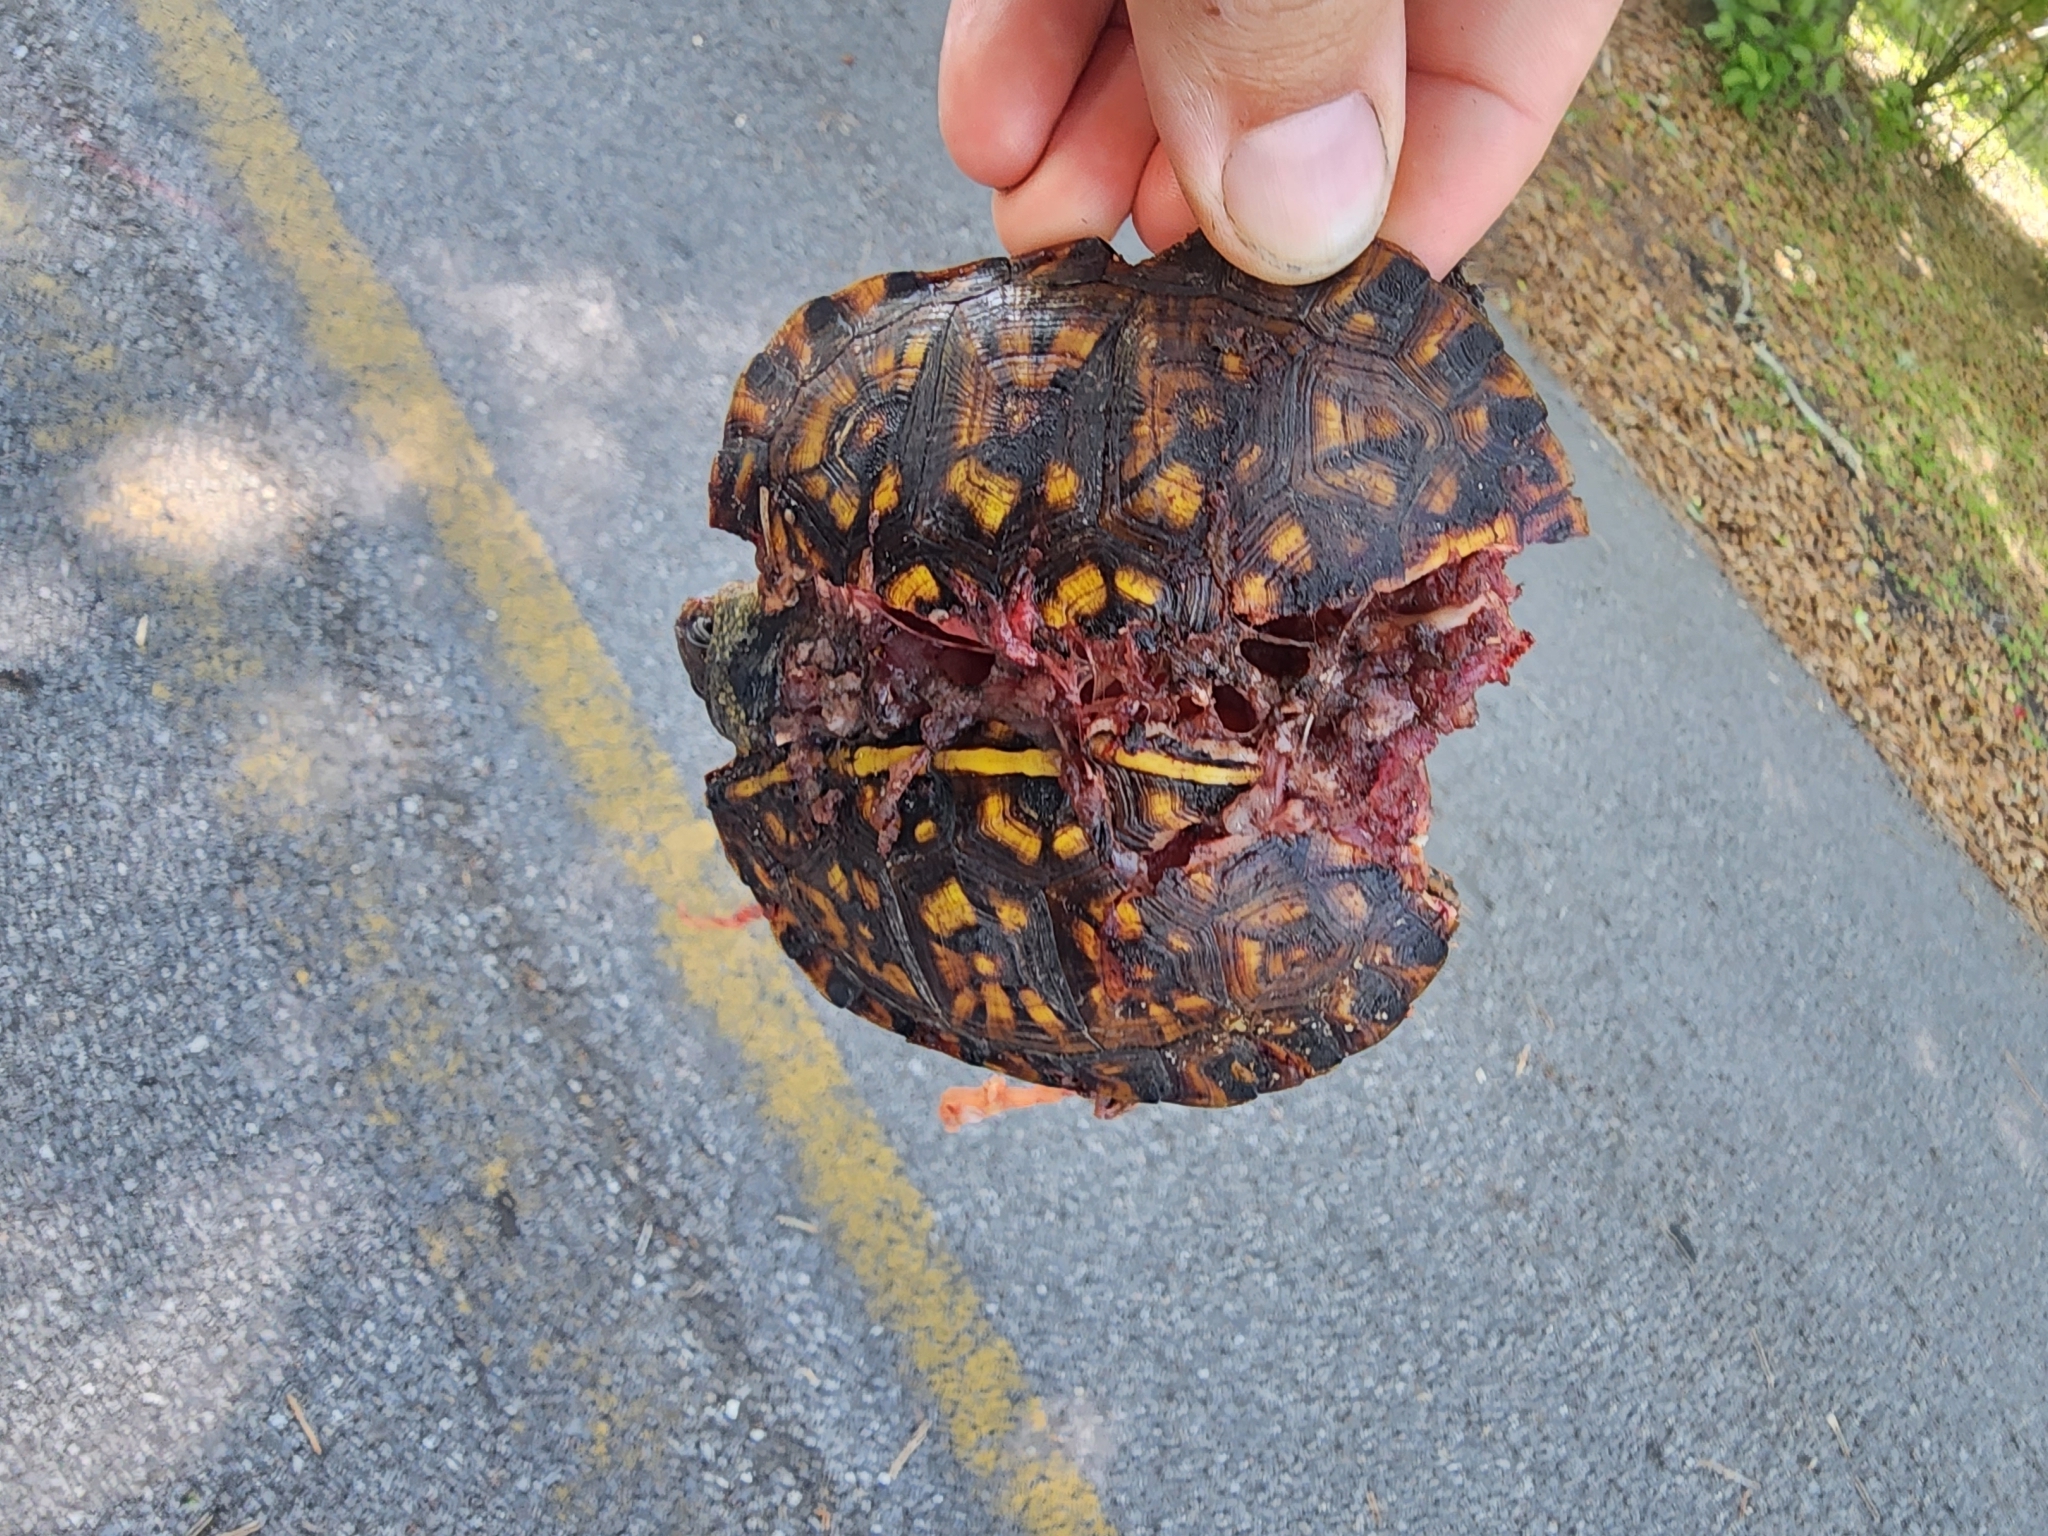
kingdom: Animalia
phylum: Chordata
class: Testudines
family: Emydidae
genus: Terrapene
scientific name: Terrapene carolina
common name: Common box turtle
